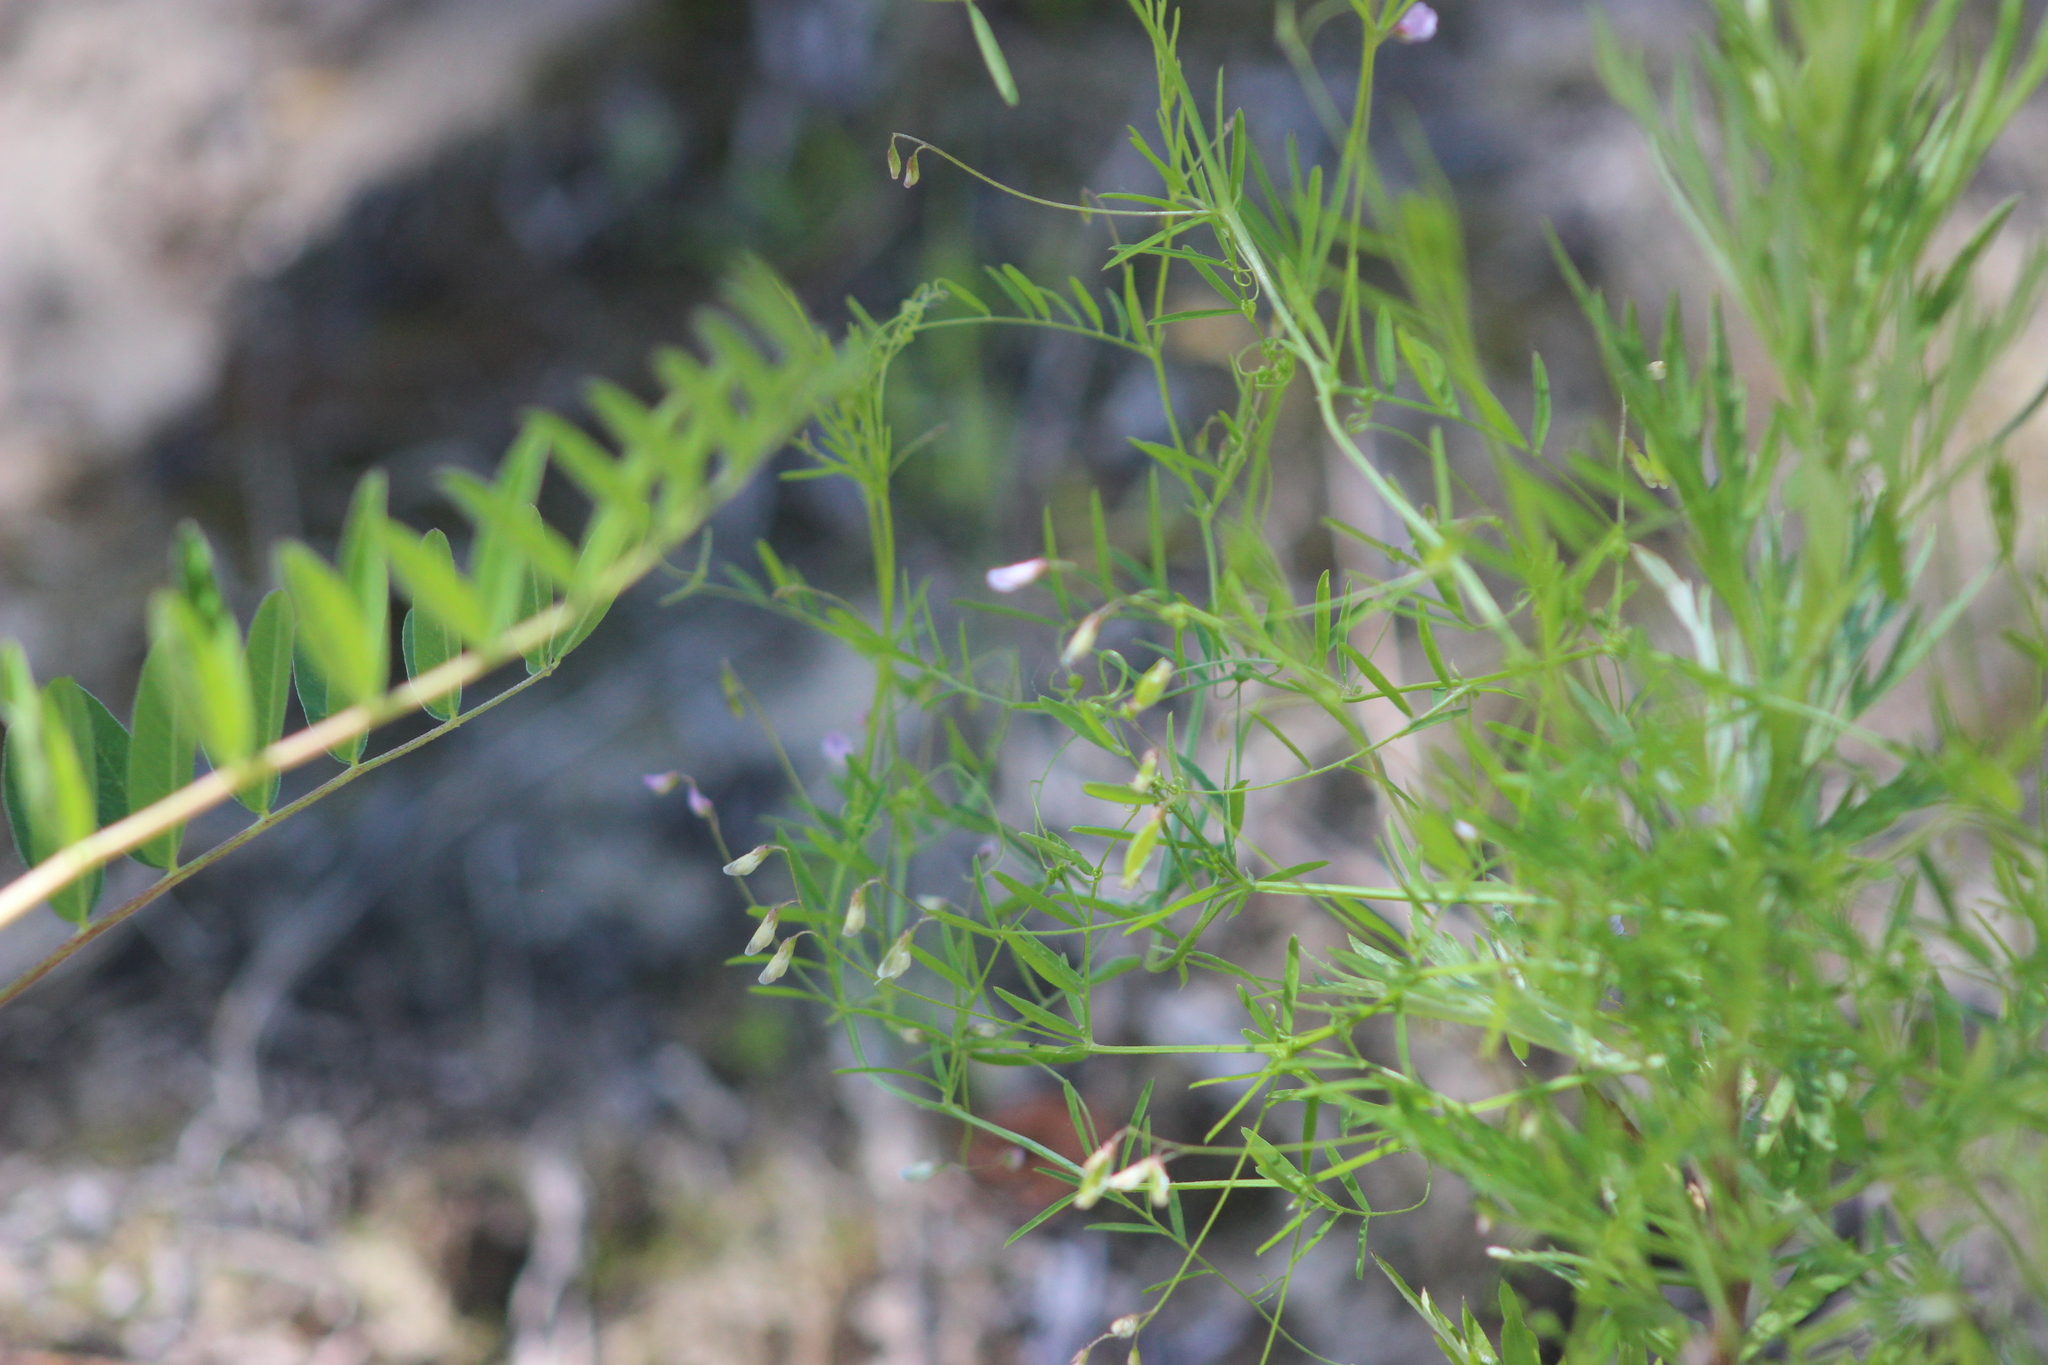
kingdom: Plantae
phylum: Tracheophyta
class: Magnoliopsida
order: Fabales
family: Fabaceae
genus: Vicia
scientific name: Vicia tetrasperma
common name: Smooth tare
